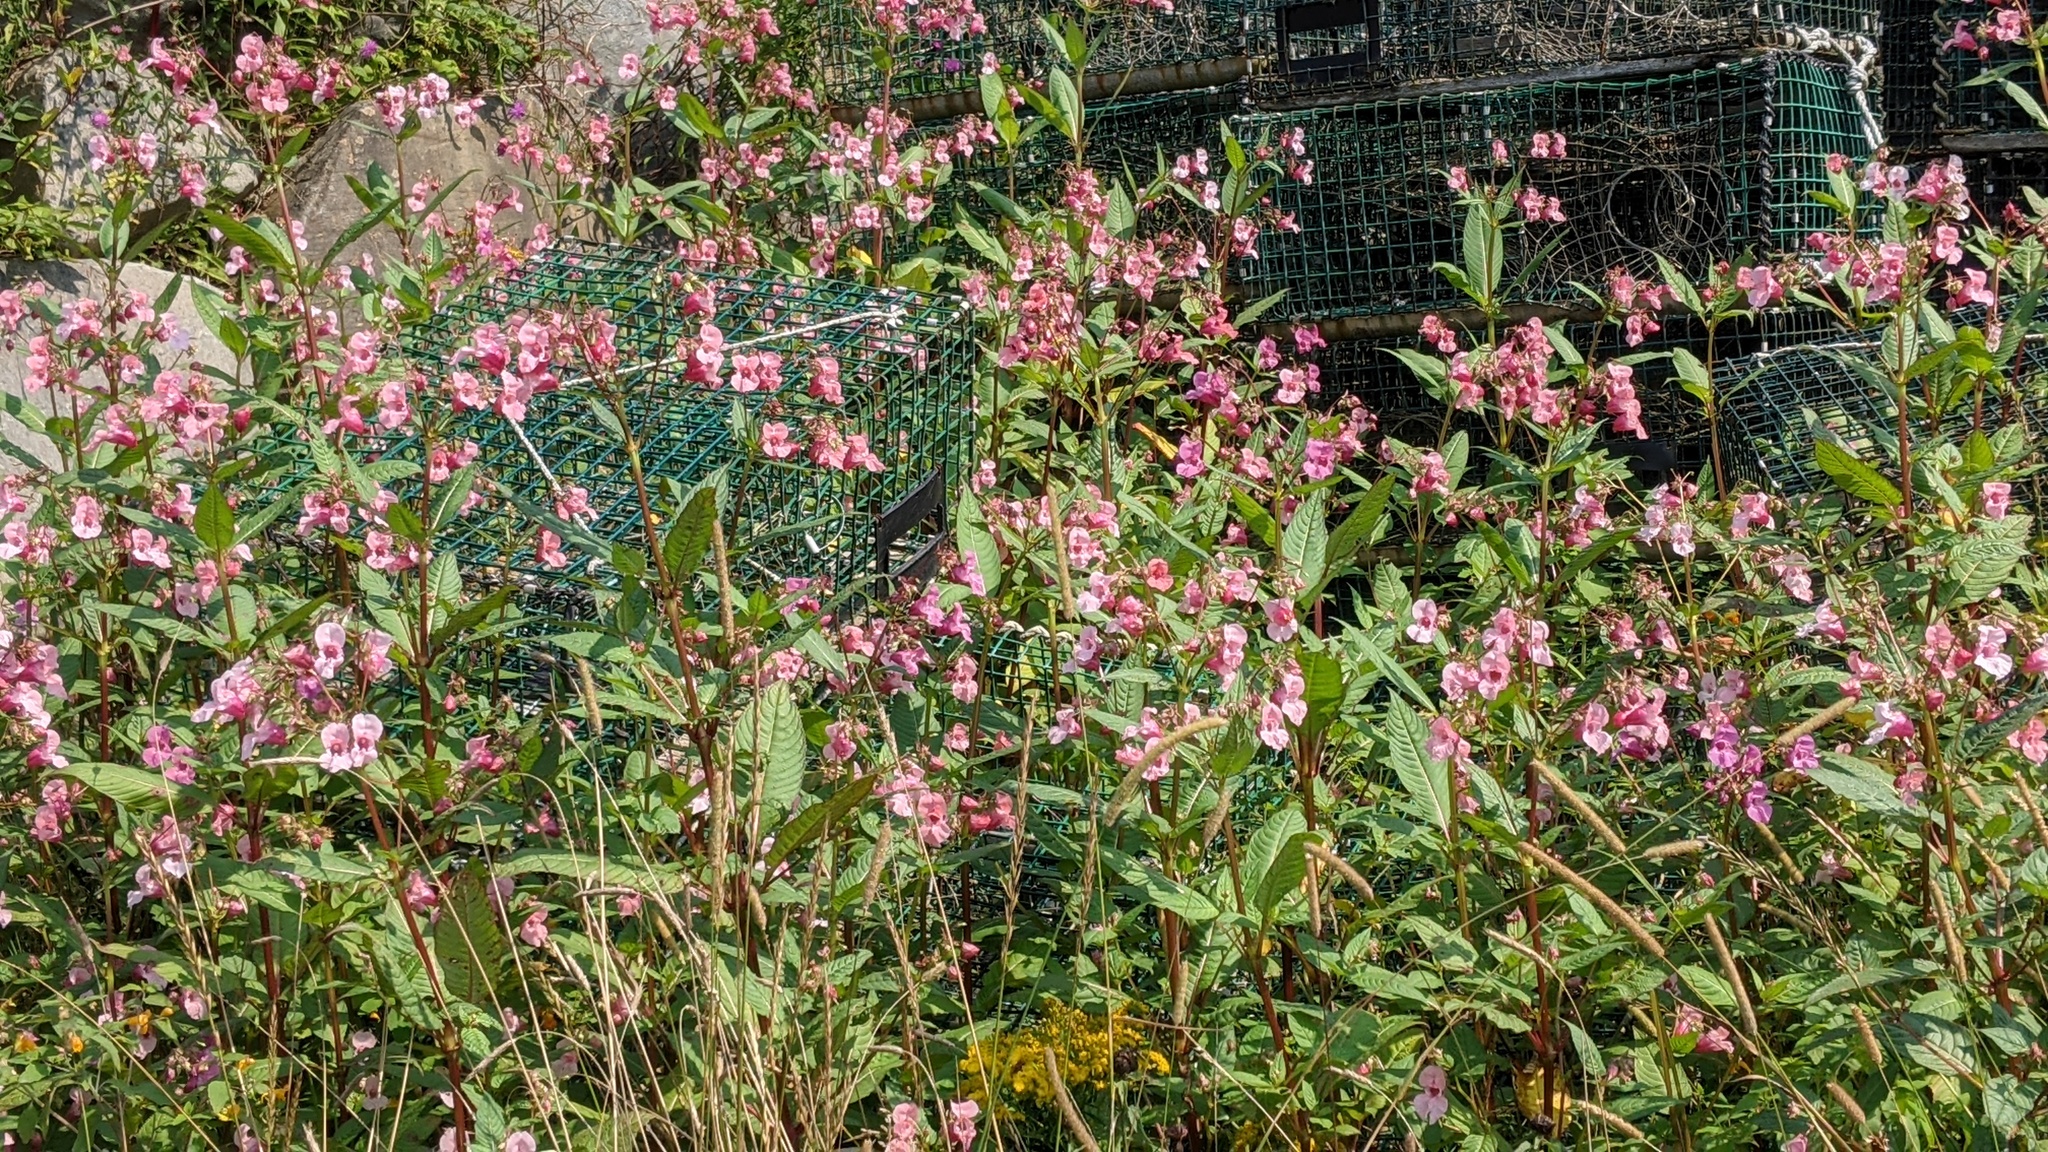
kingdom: Plantae
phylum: Tracheophyta
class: Magnoliopsida
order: Ericales
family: Balsaminaceae
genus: Impatiens
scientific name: Impatiens glandulifera
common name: Himalayan balsam
